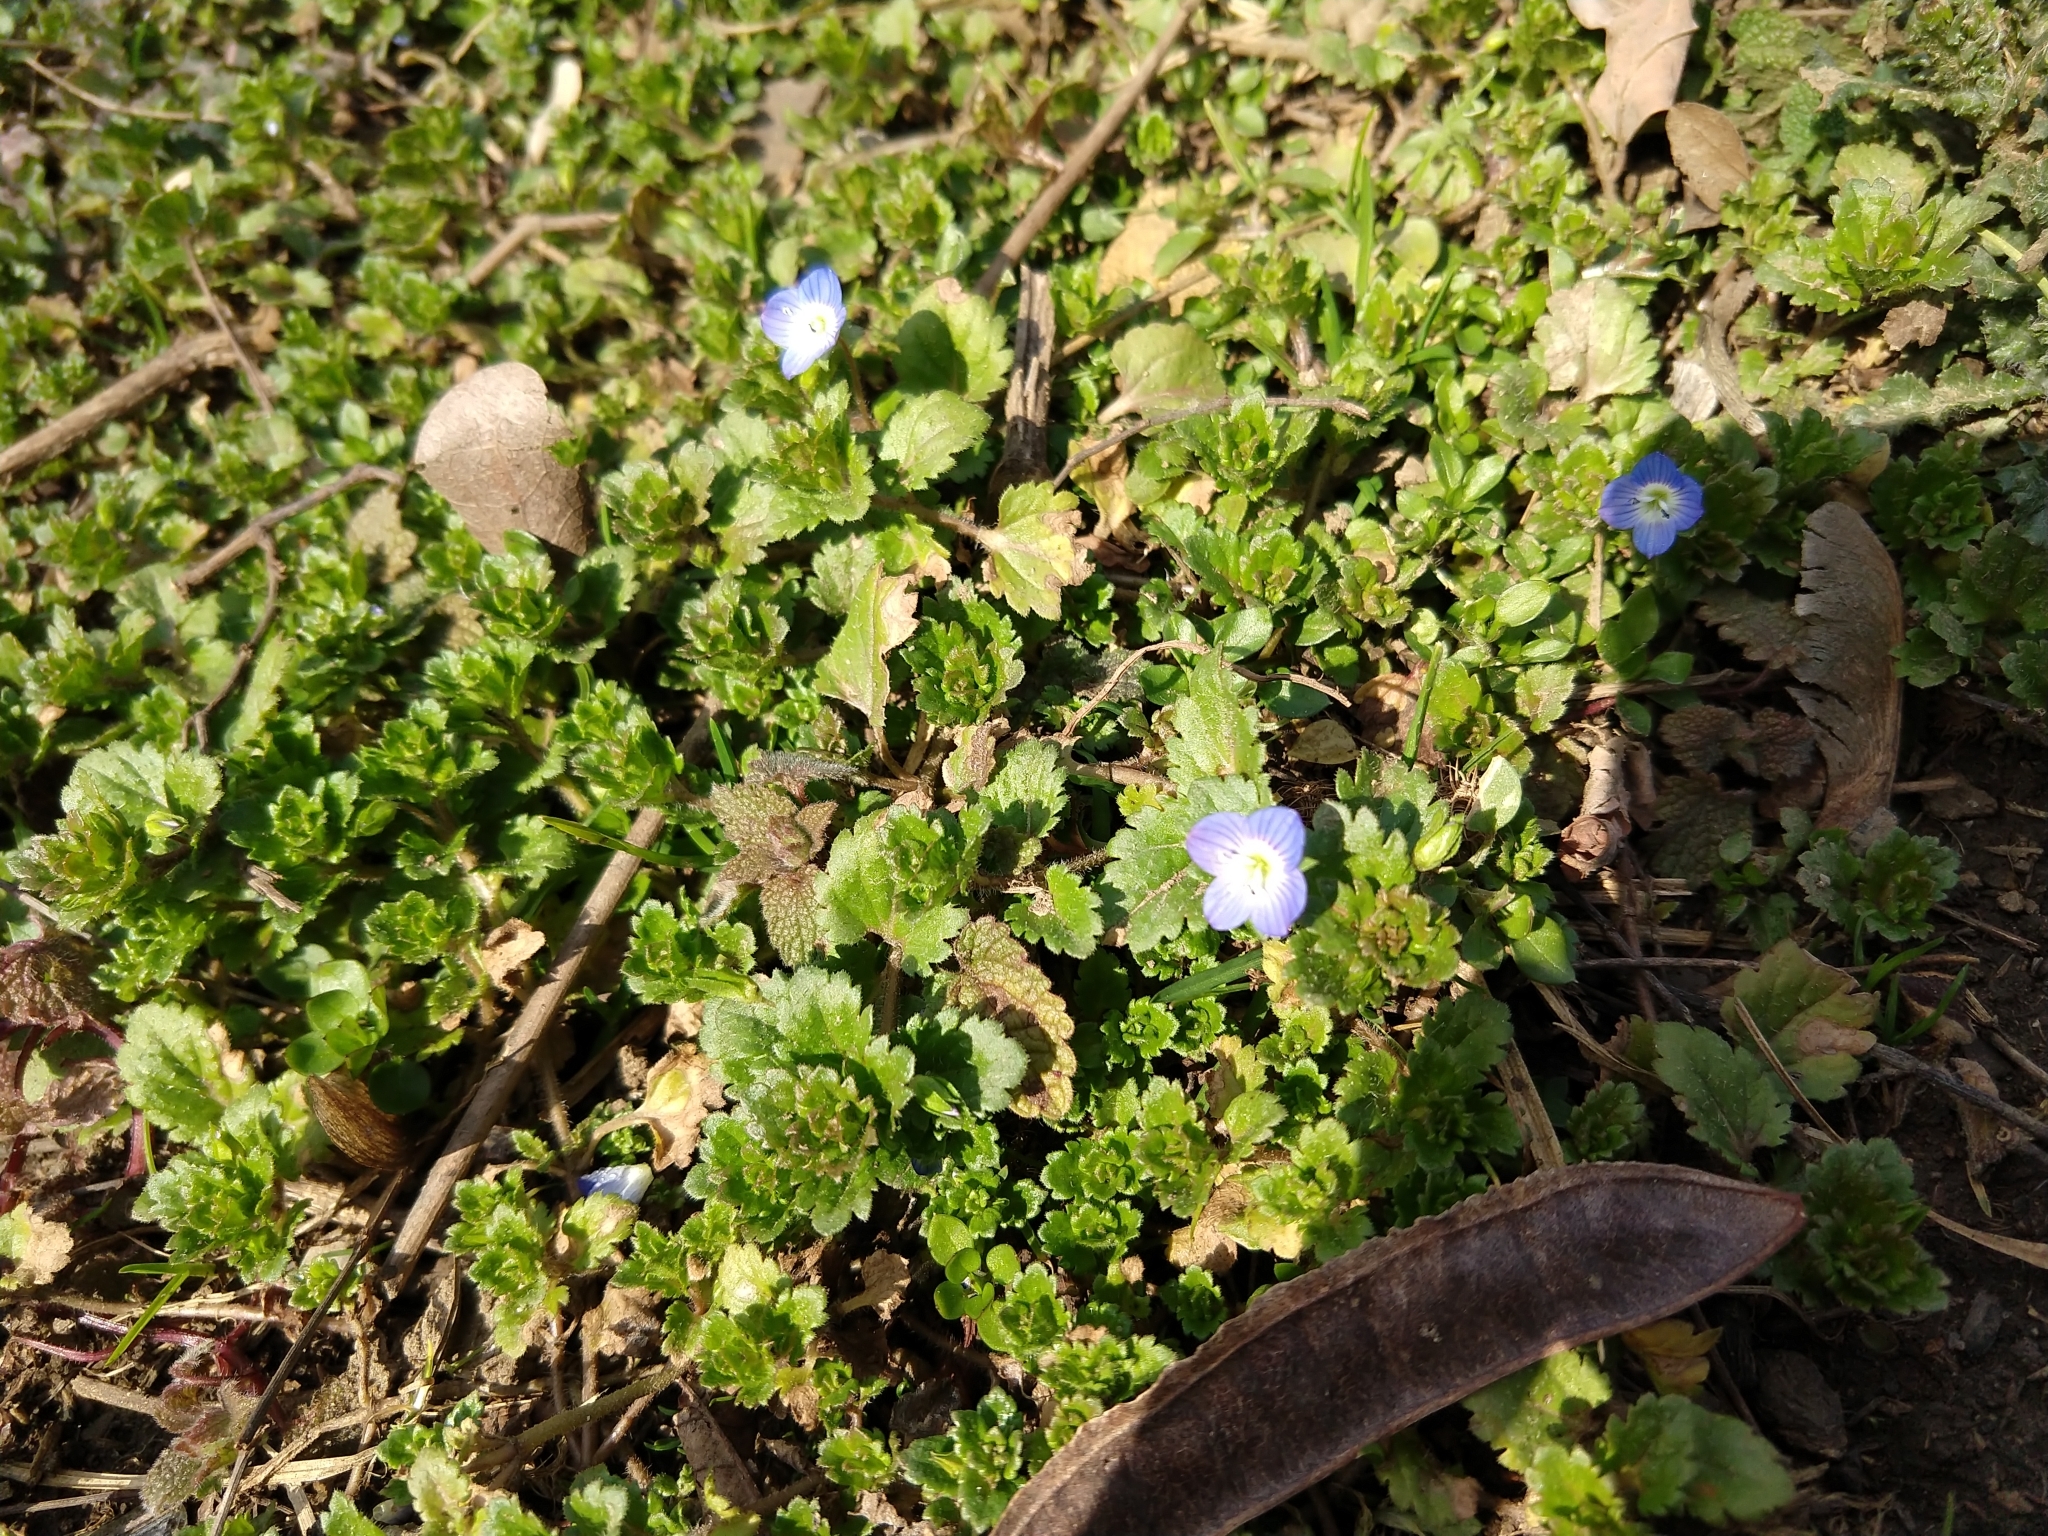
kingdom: Plantae
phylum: Tracheophyta
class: Magnoliopsida
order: Lamiales
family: Plantaginaceae
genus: Veronica
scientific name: Veronica persica
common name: Common field-speedwell
